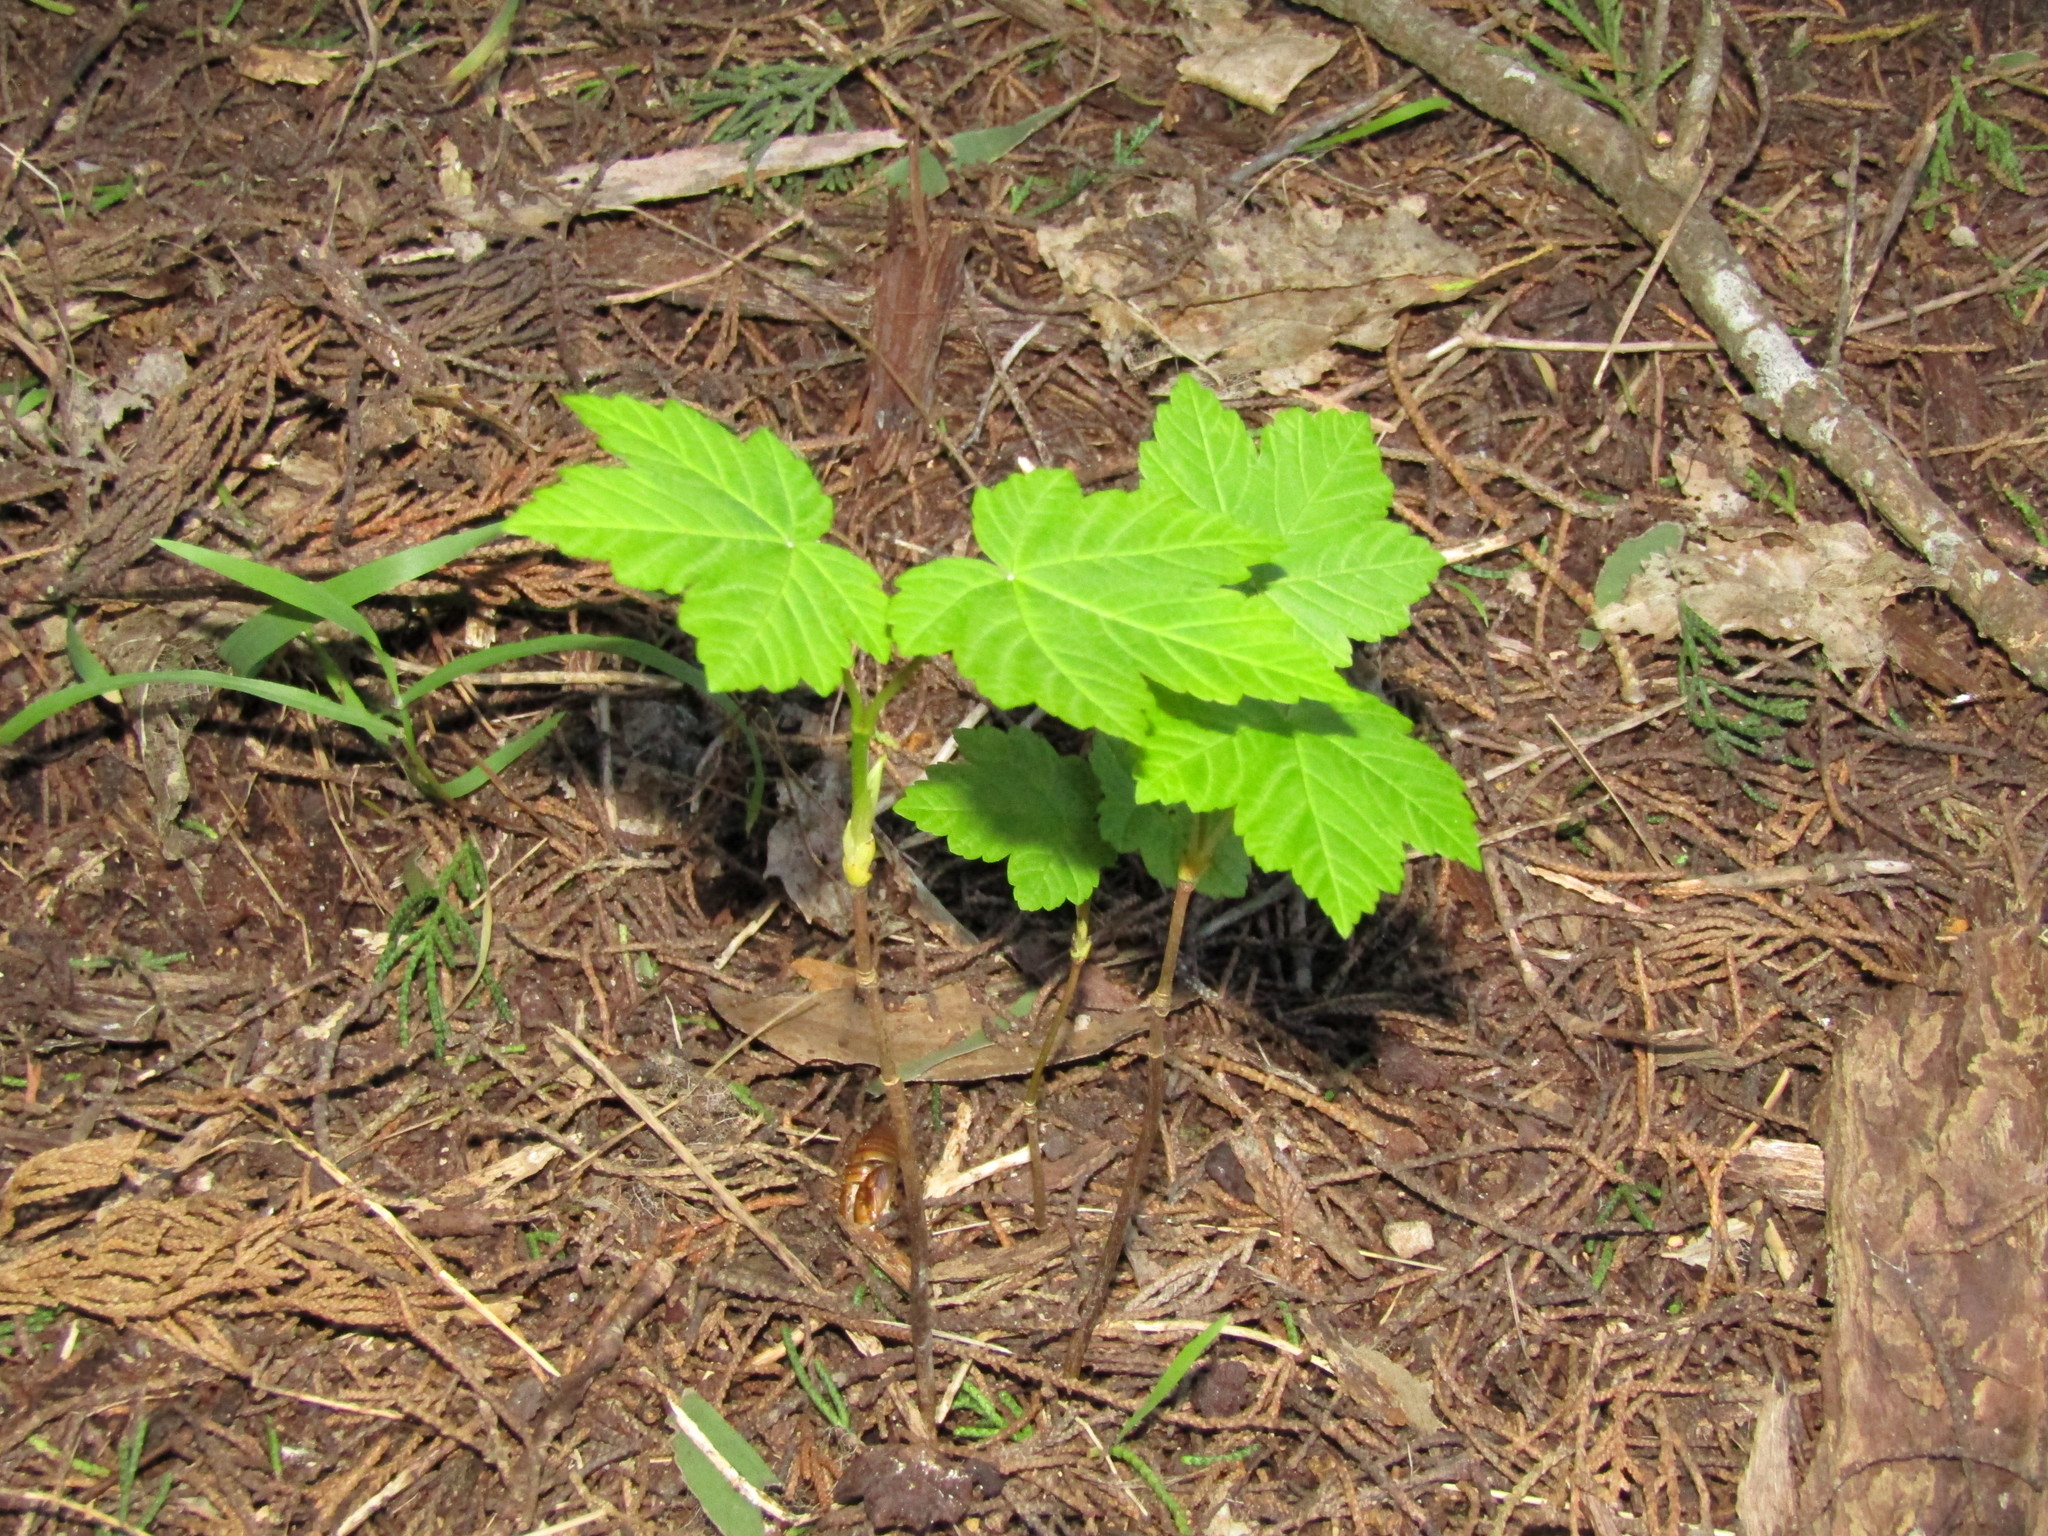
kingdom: Plantae
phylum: Tracheophyta
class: Magnoliopsida
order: Sapindales
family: Sapindaceae
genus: Acer
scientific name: Acer pseudoplatanus
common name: Sycamore
